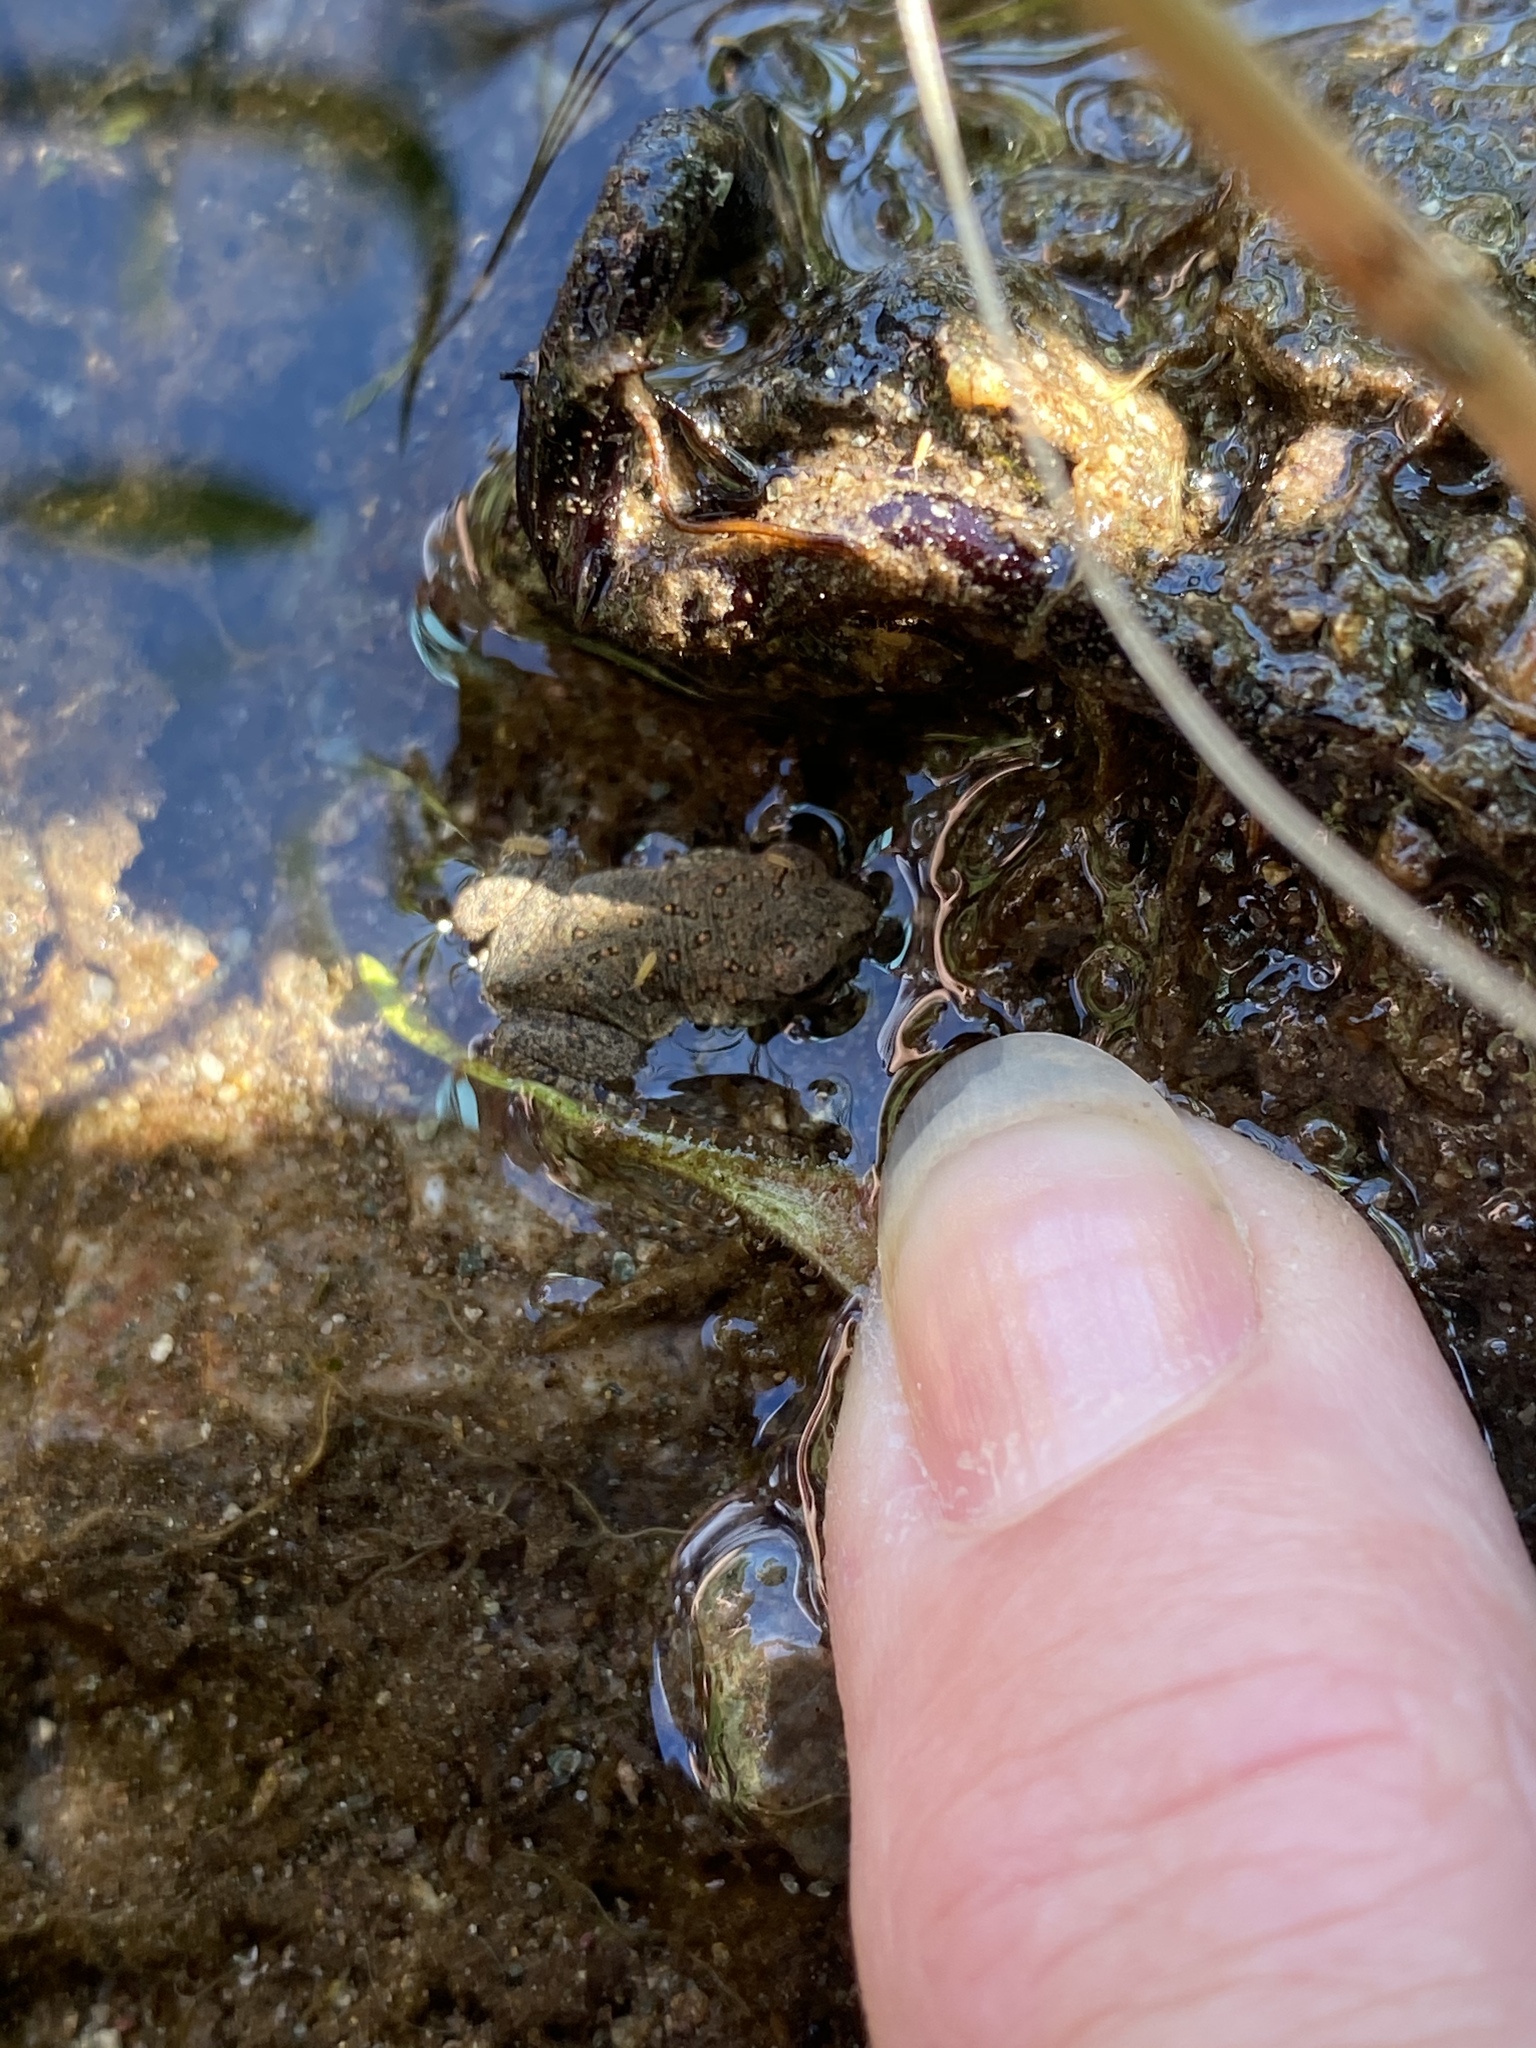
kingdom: Animalia
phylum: Chordata
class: Amphibia
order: Anura
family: Bufonidae
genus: Anaxyrus
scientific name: Anaxyrus americanus
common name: American toad
